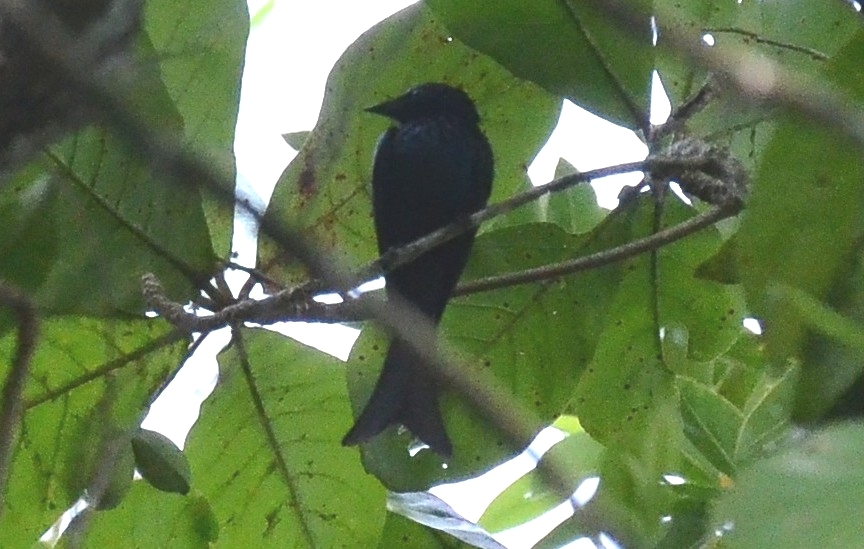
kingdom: Animalia
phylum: Chordata
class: Aves
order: Passeriformes
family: Dicruridae
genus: Dicrurus
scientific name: Dicrurus aeneus
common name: Bronzed drongo
